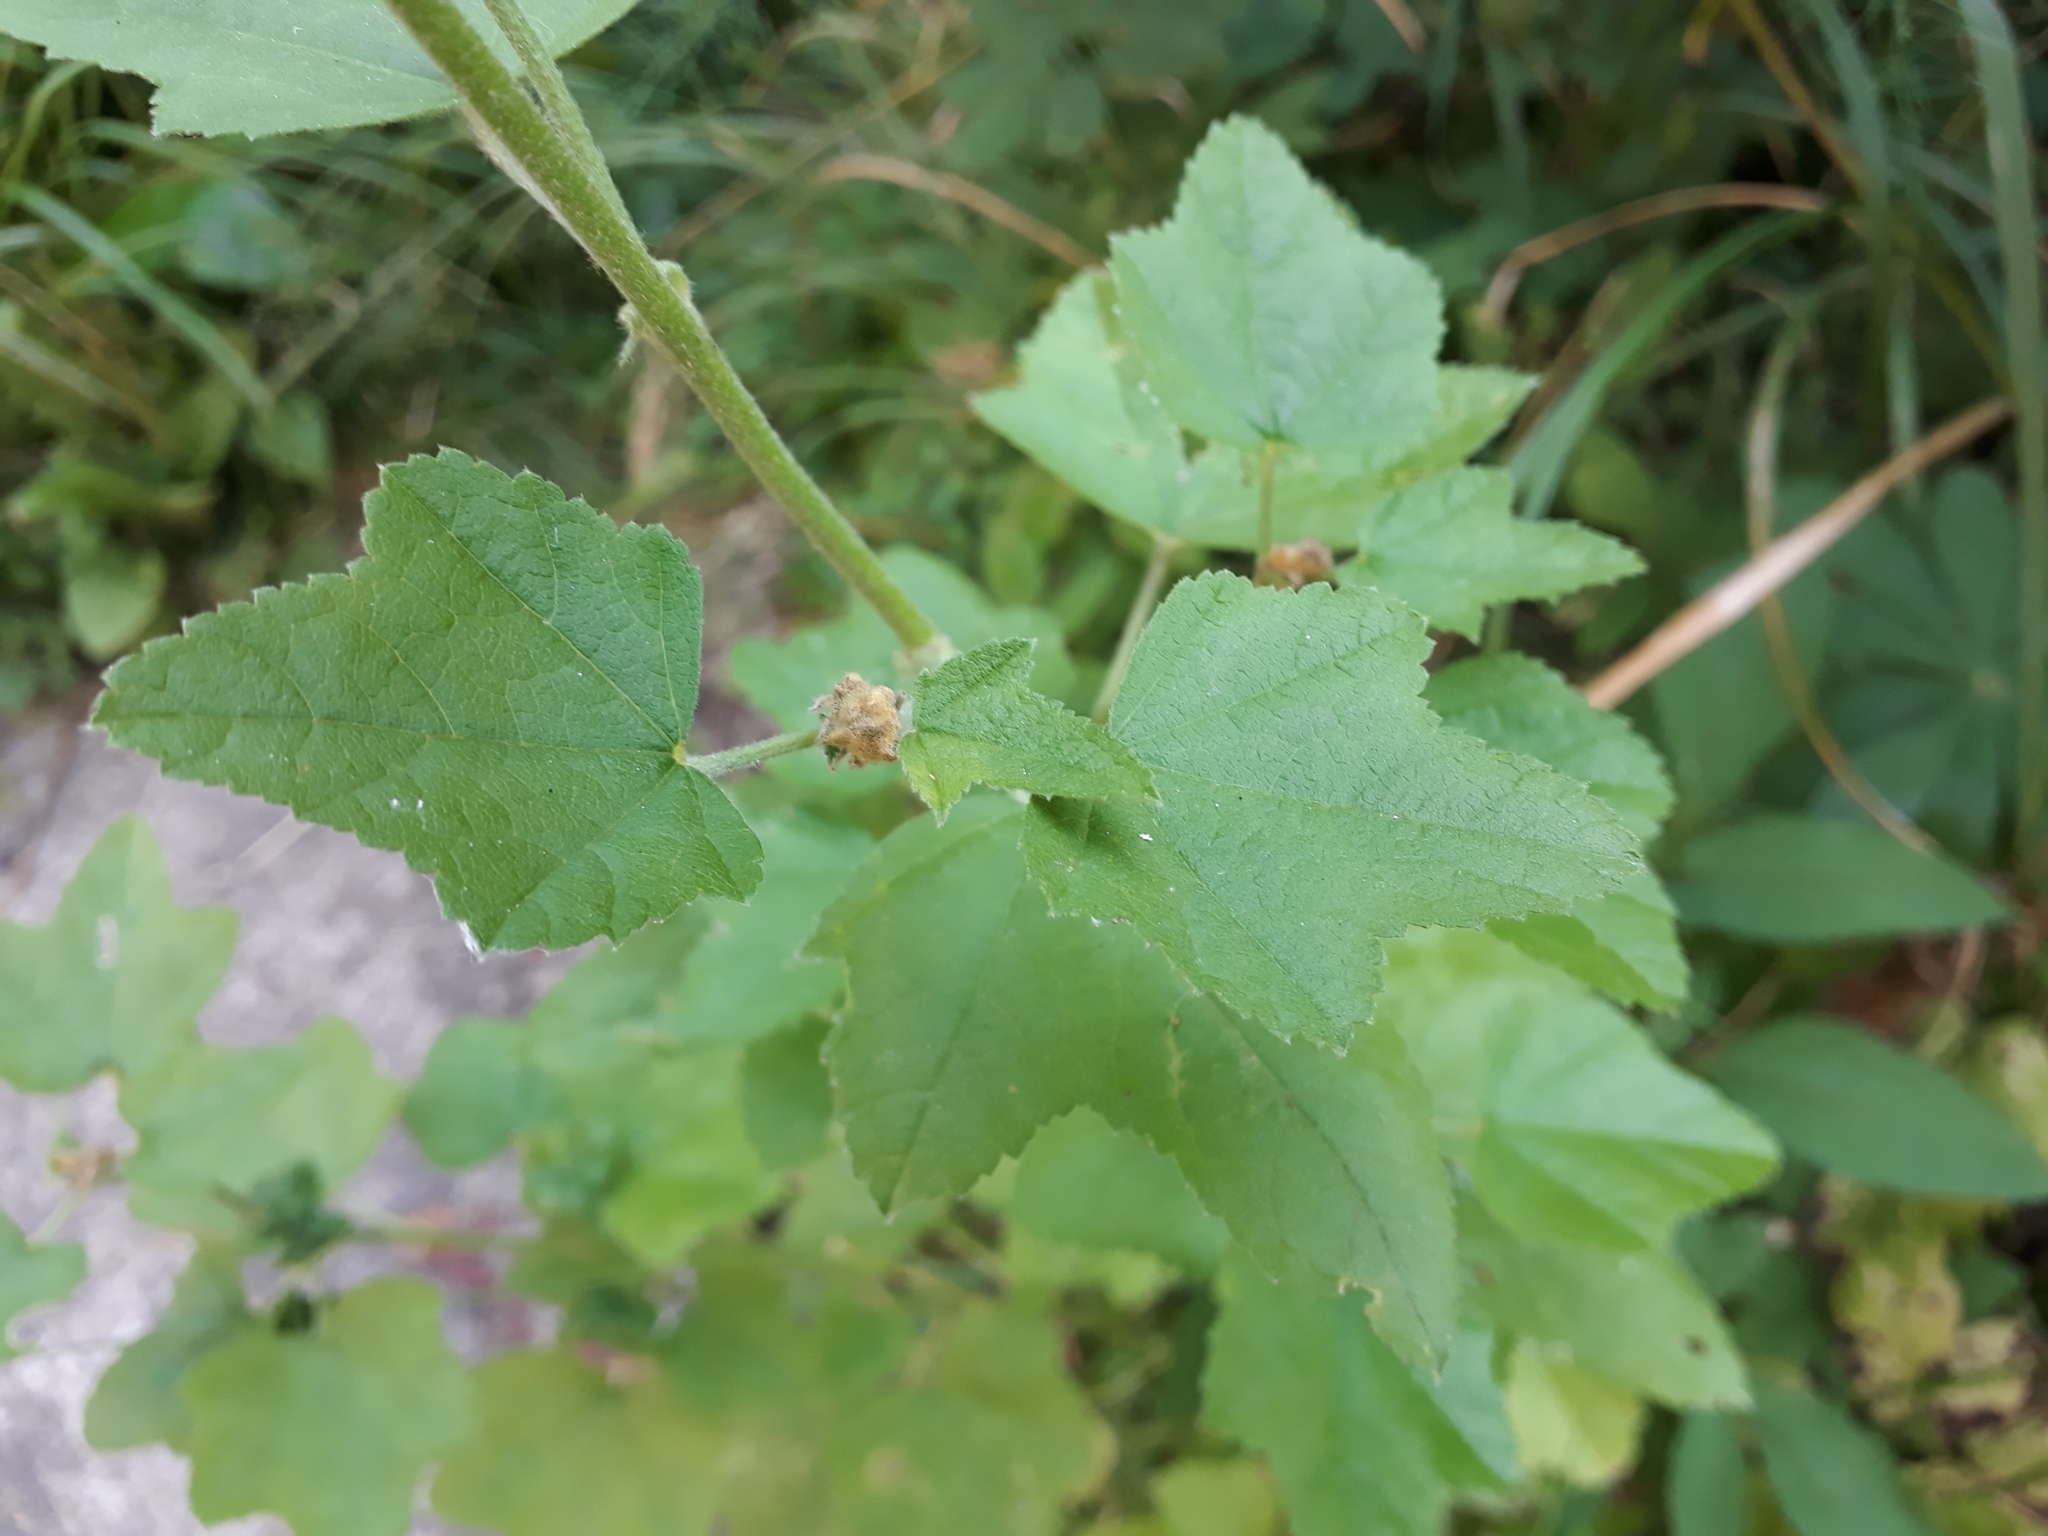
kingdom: Plantae
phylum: Tracheophyta
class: Magnoliopsida
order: Malvales
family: Malvaceae
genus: Malva
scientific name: Malva thuringiaca
